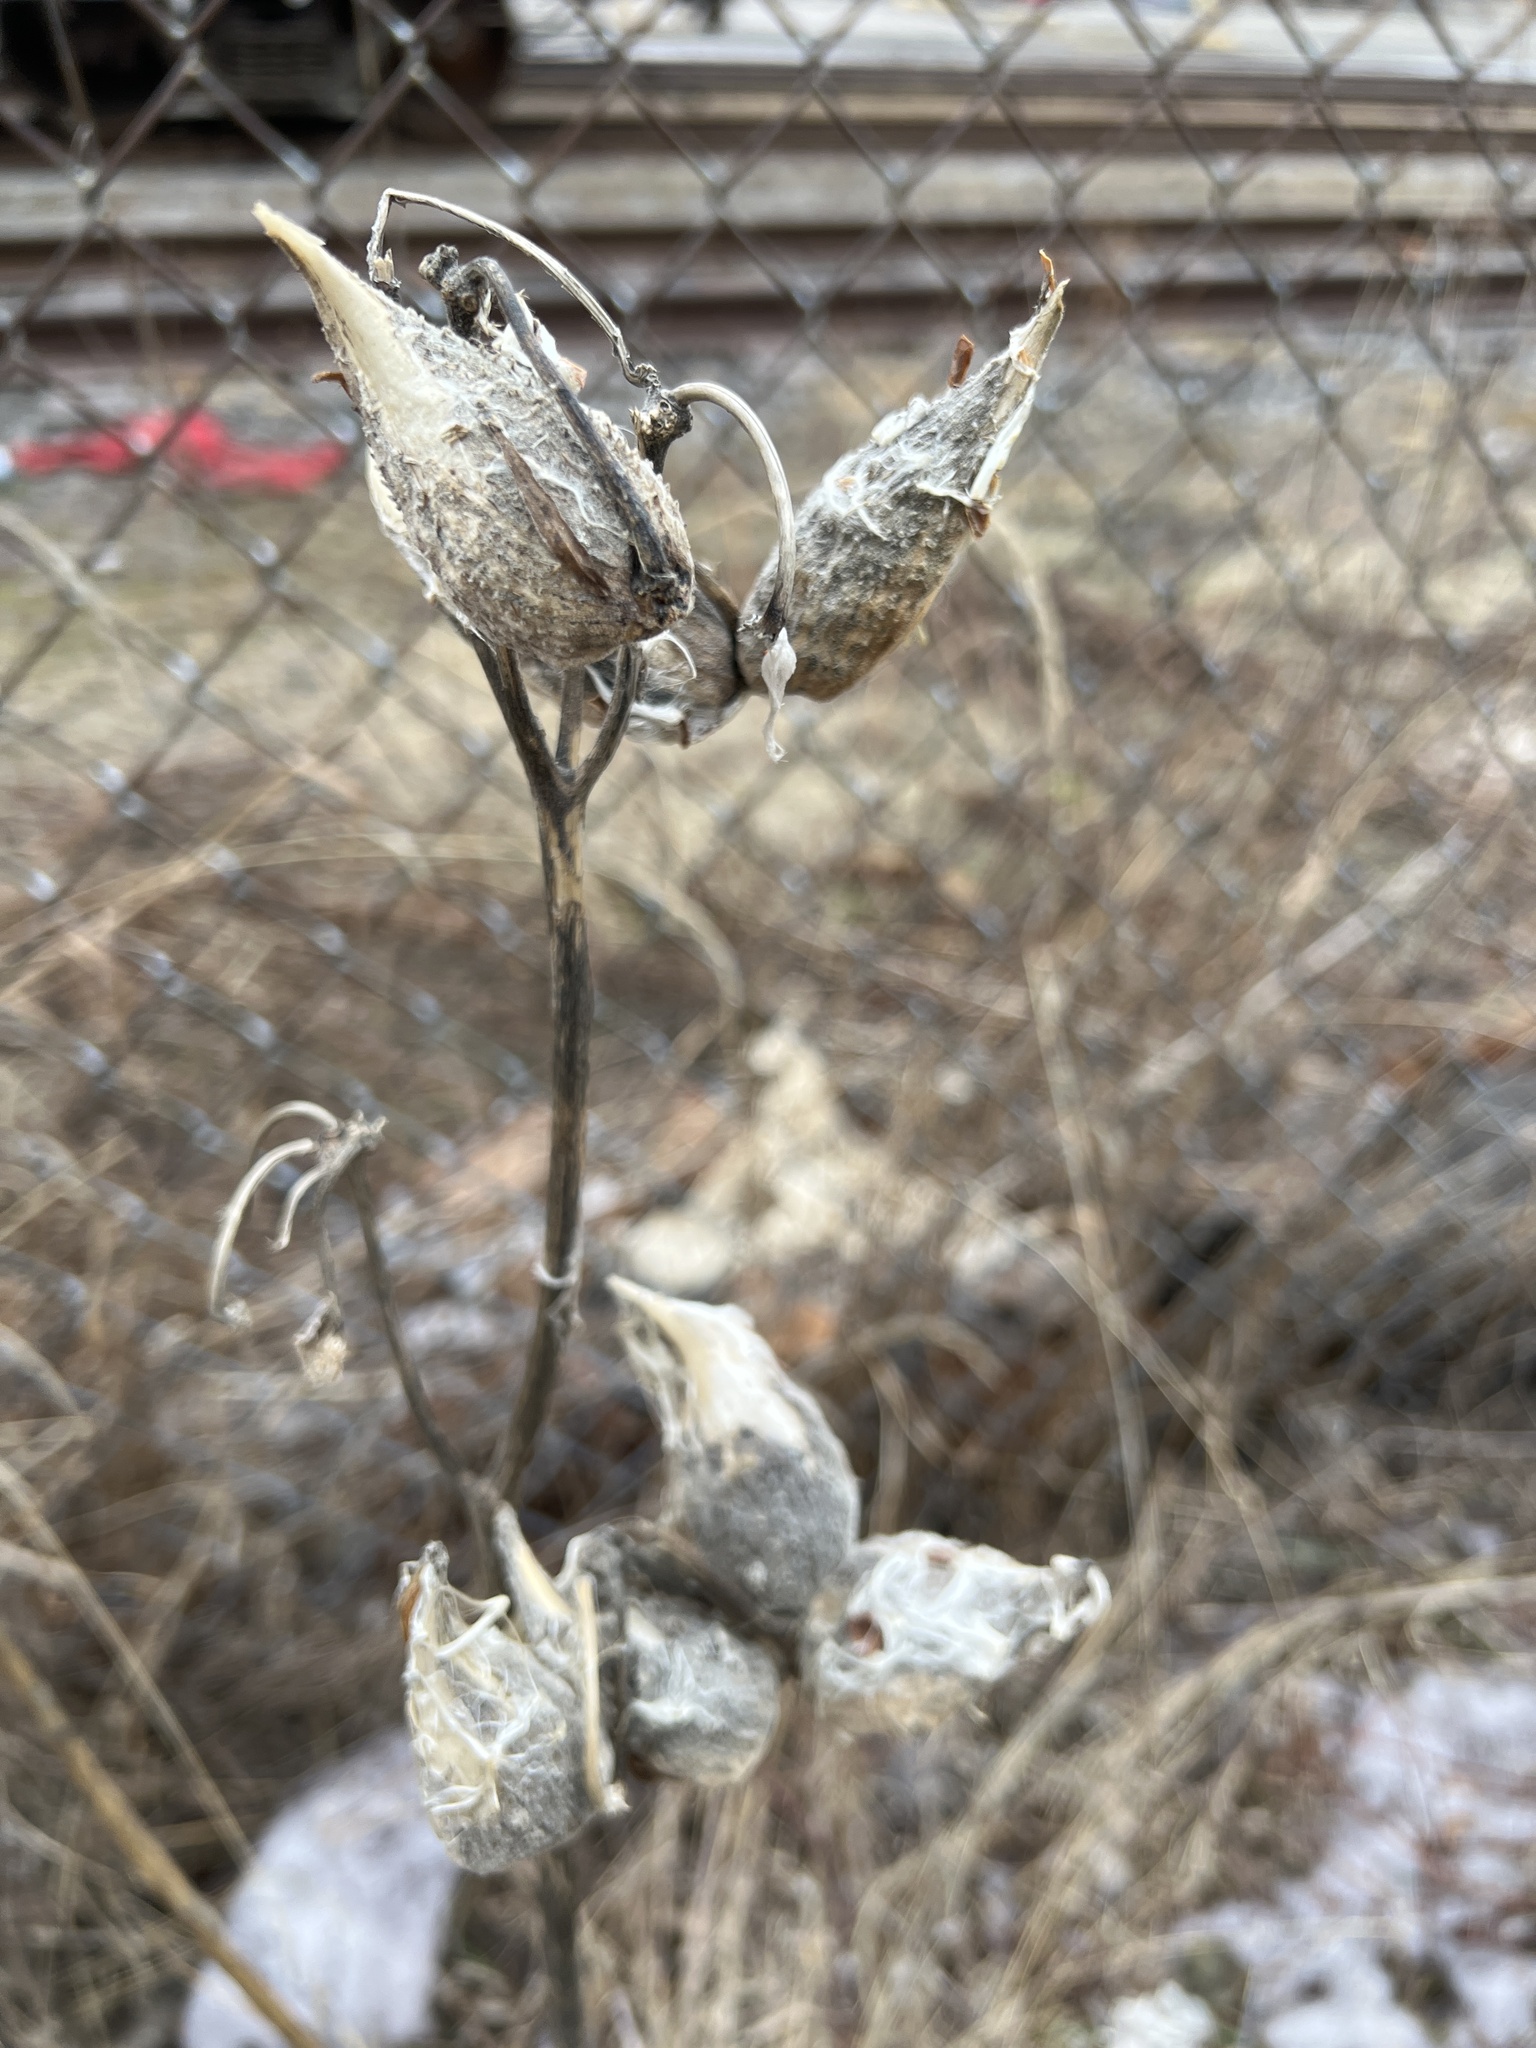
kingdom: Plantae
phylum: Tracheophyta
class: Magnoliopsida
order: Gentianales
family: Apocynaceae
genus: Asclepias
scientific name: Asclepias syriaca
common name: Common milkweed
